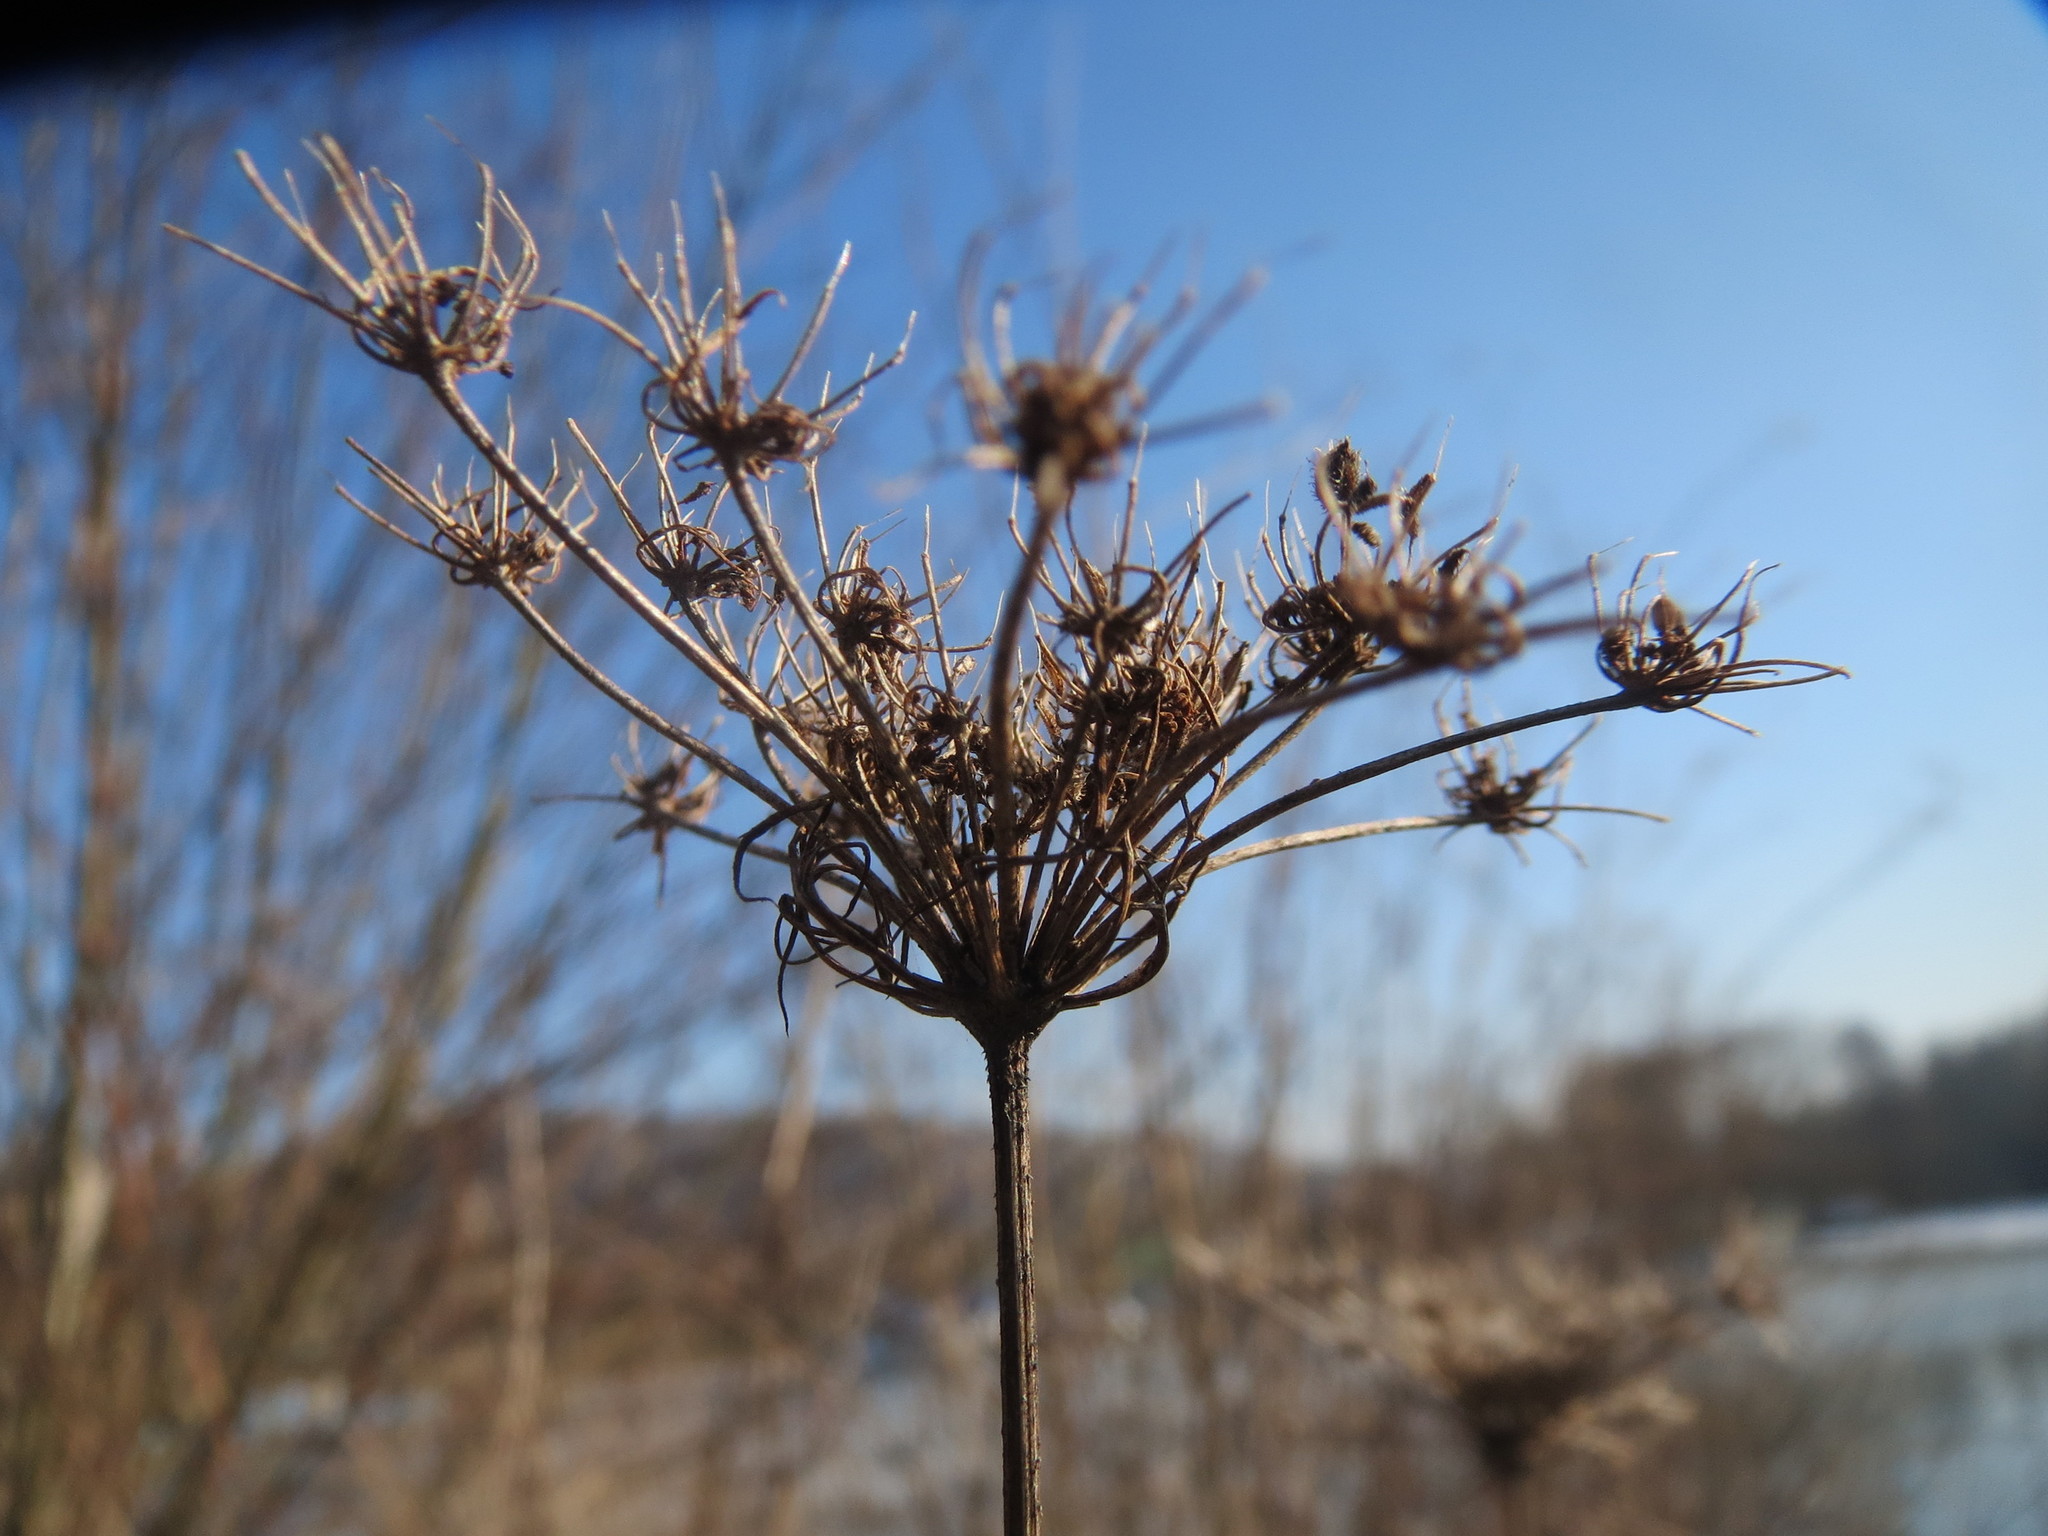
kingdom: Plantae
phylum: Tracheophyta
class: Magnoliopsida
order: Apiales
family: Apiaceae
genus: Daucus
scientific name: Daucus carota
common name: Wild carrot
